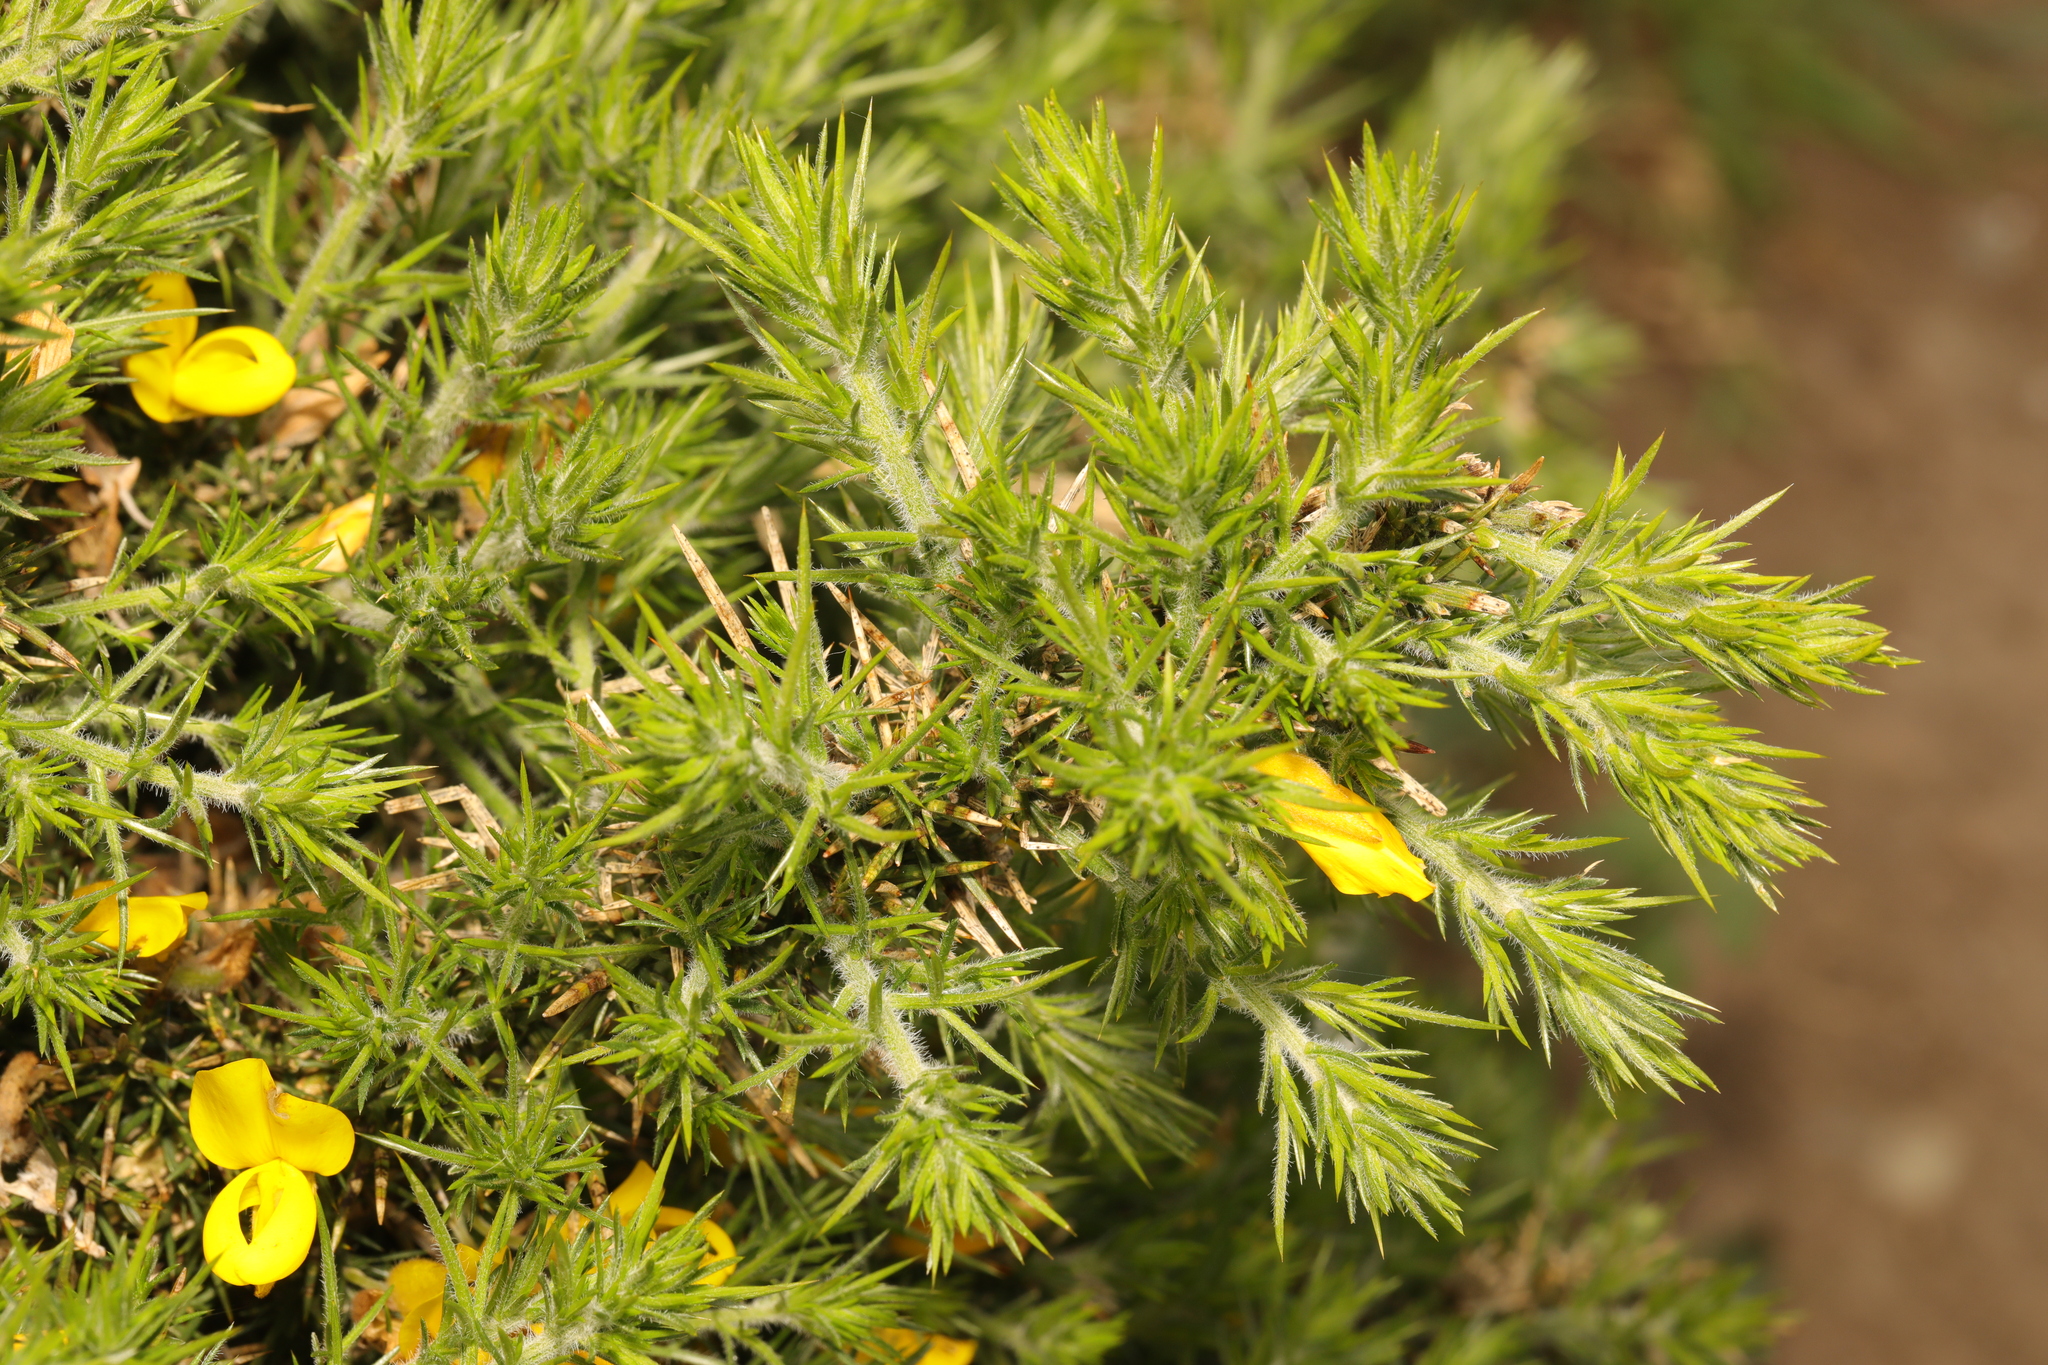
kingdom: Plantae
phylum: Tracheophyta
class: Magnoliopsida
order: Fabales
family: Fabaceae
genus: Ulex
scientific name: Ulex europaeus
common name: Common gorse
